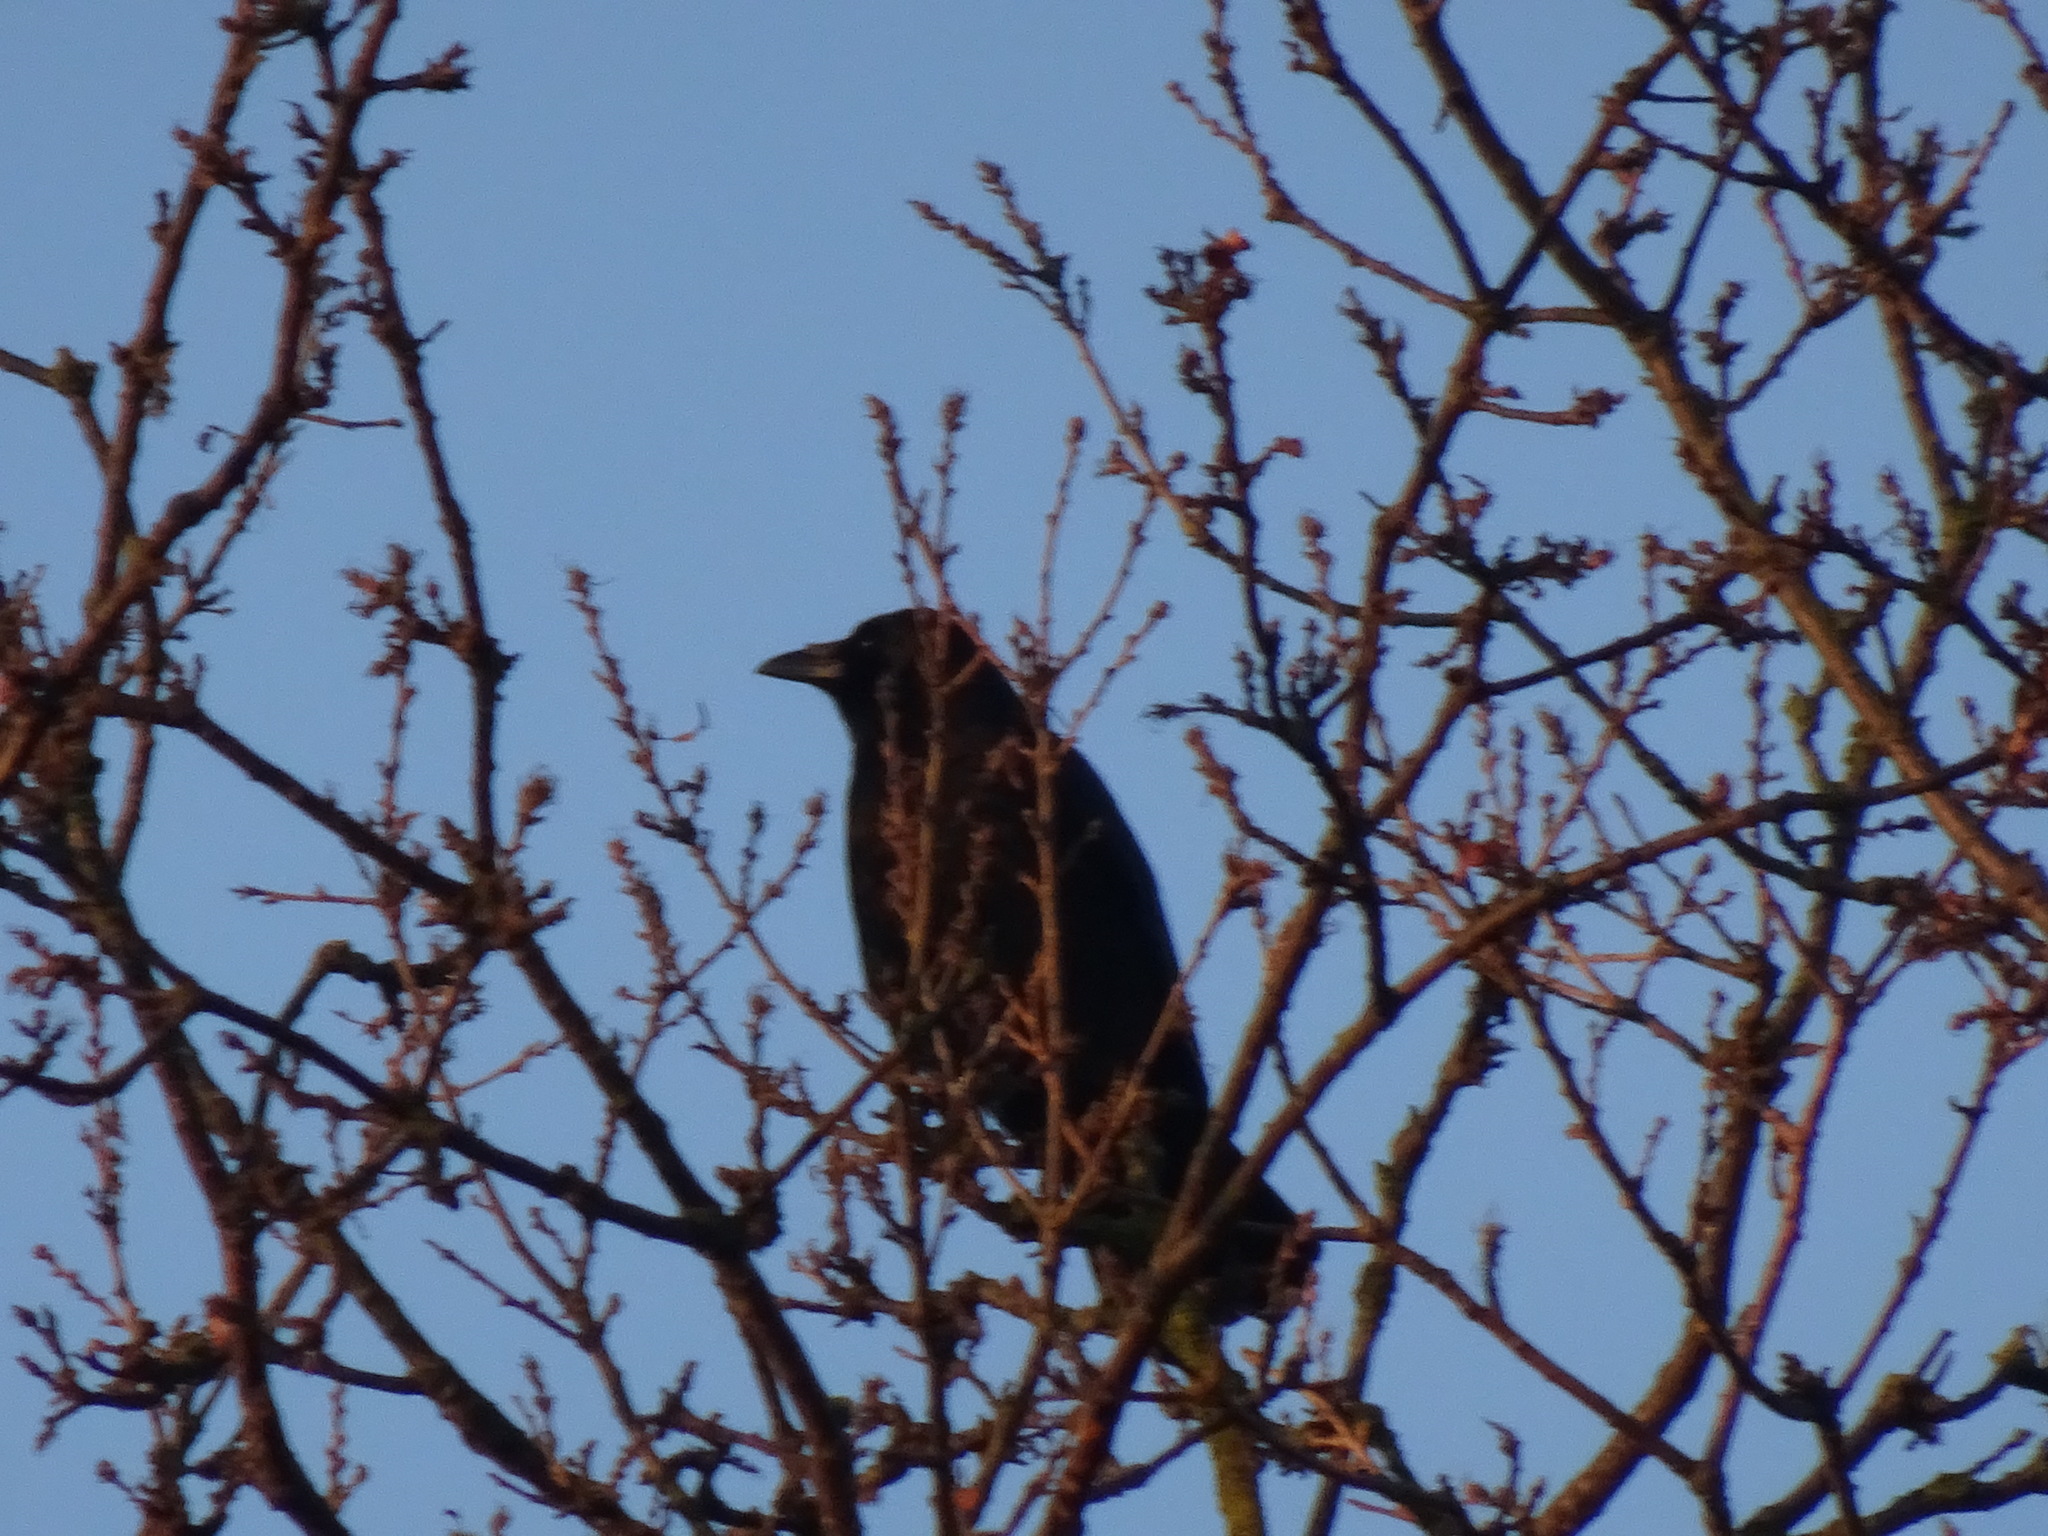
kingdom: Animalia
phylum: Chordata
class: Aves
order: Passeriformes
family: Corvidae
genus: Corvus
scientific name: Corvus corone
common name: Carrion crow
